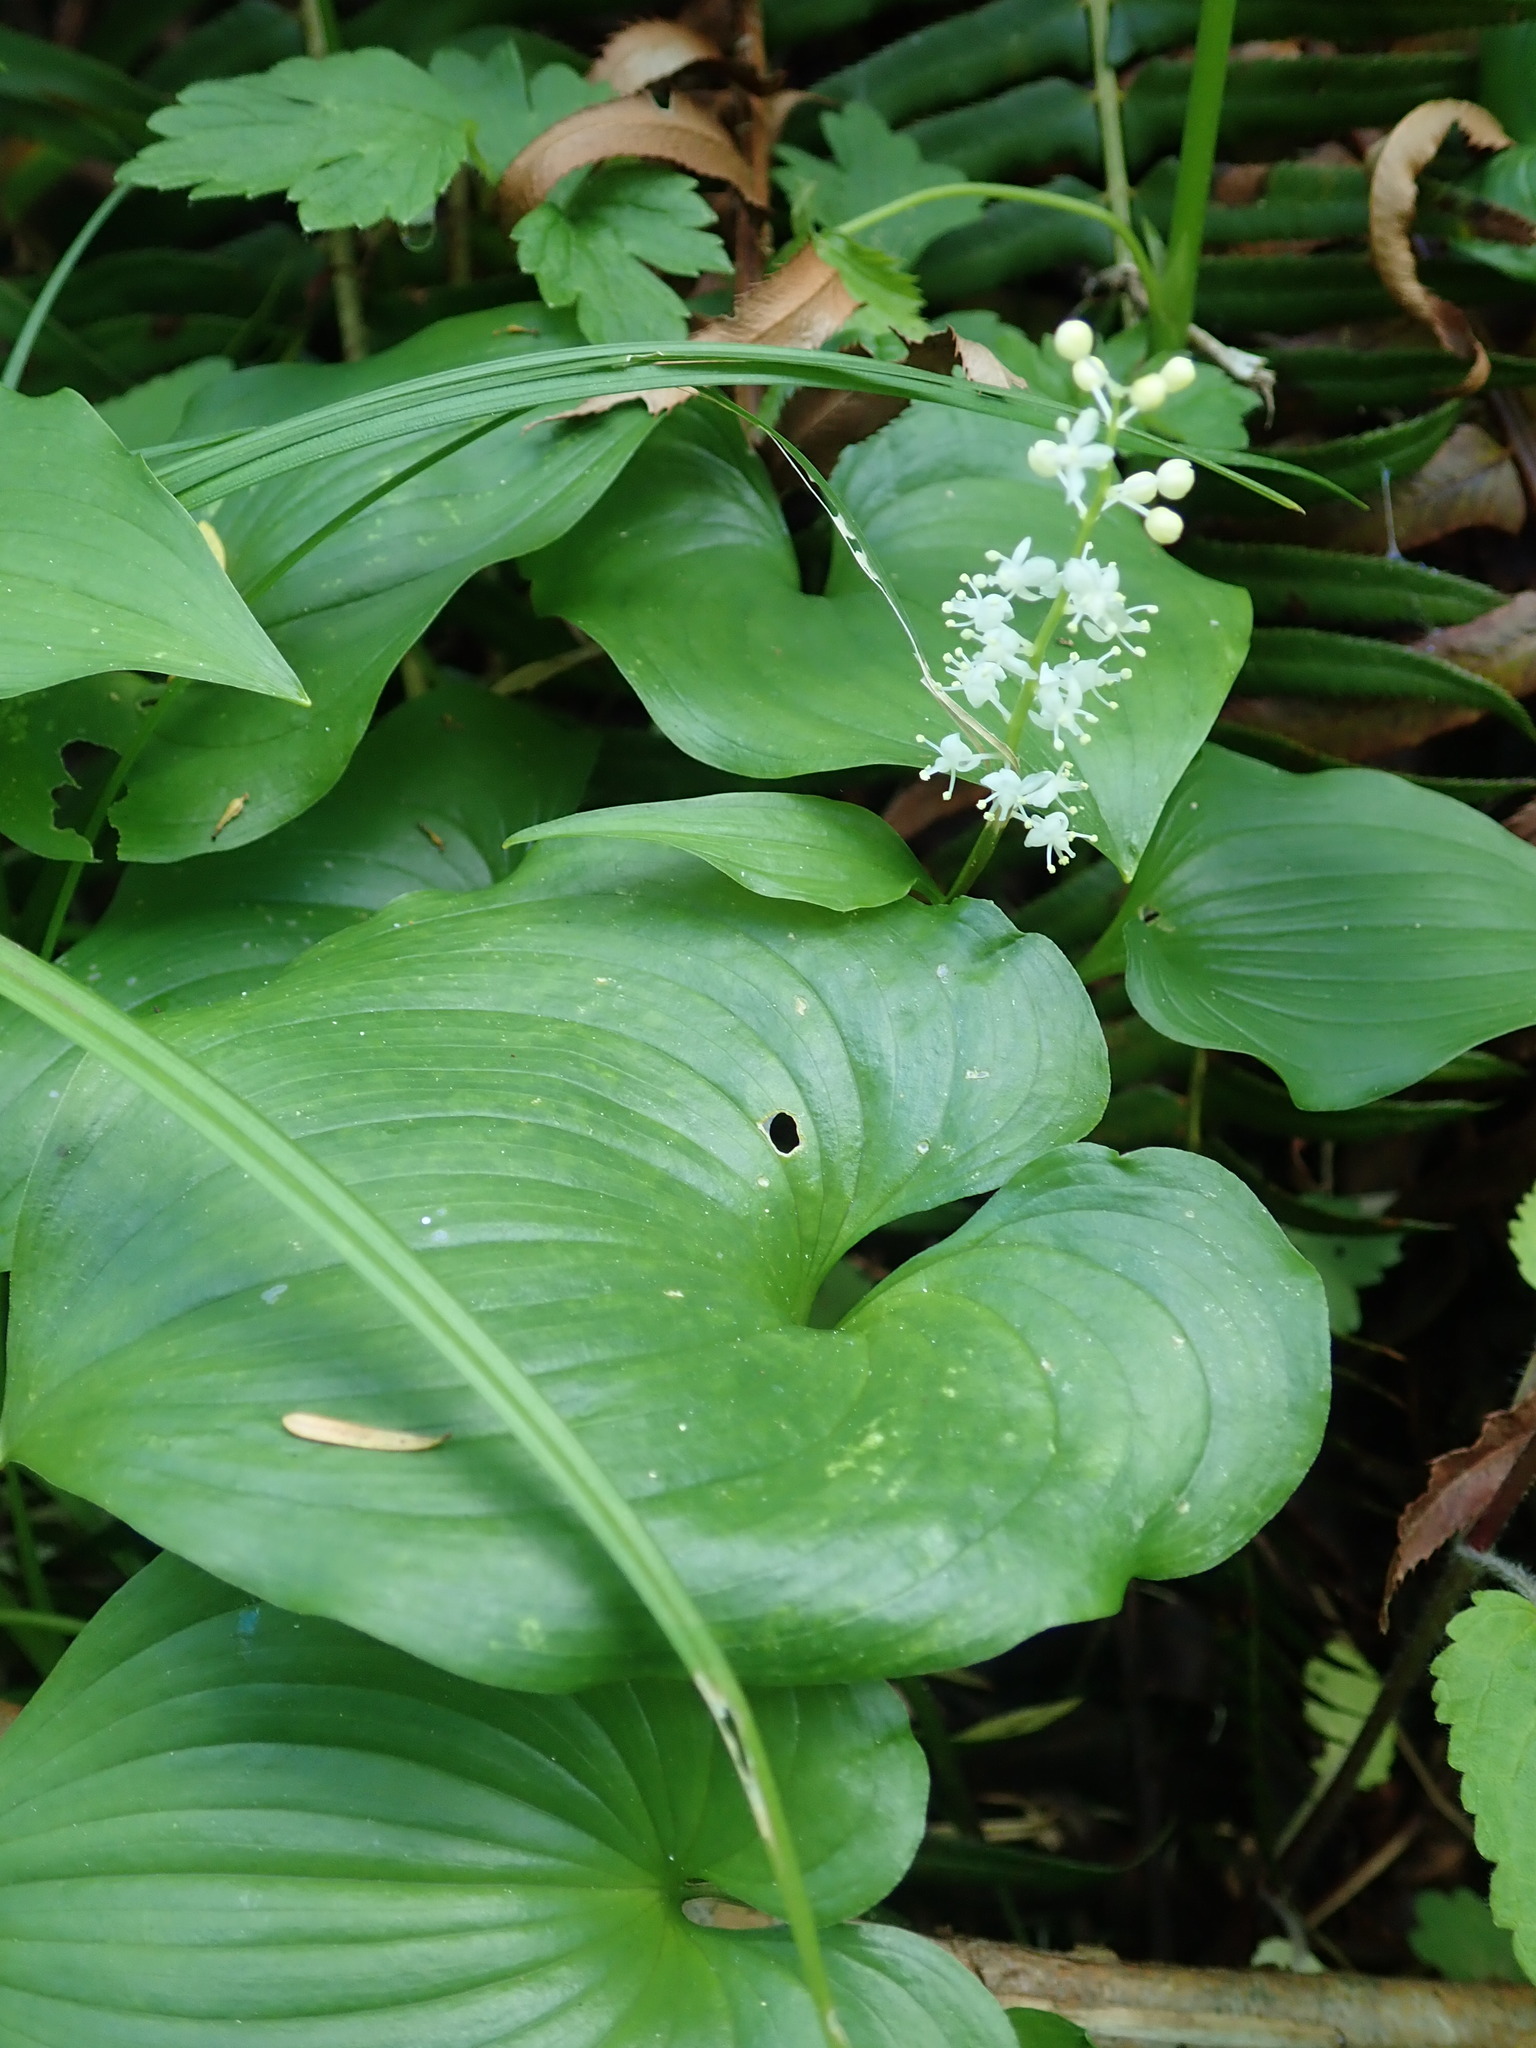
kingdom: Plantae
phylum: Tracheophyta
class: Liliopsida
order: Asparagales
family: Asparagaceae
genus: Maianthemum
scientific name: Maianthemum dilatatum
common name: False lily-of-the-valley
